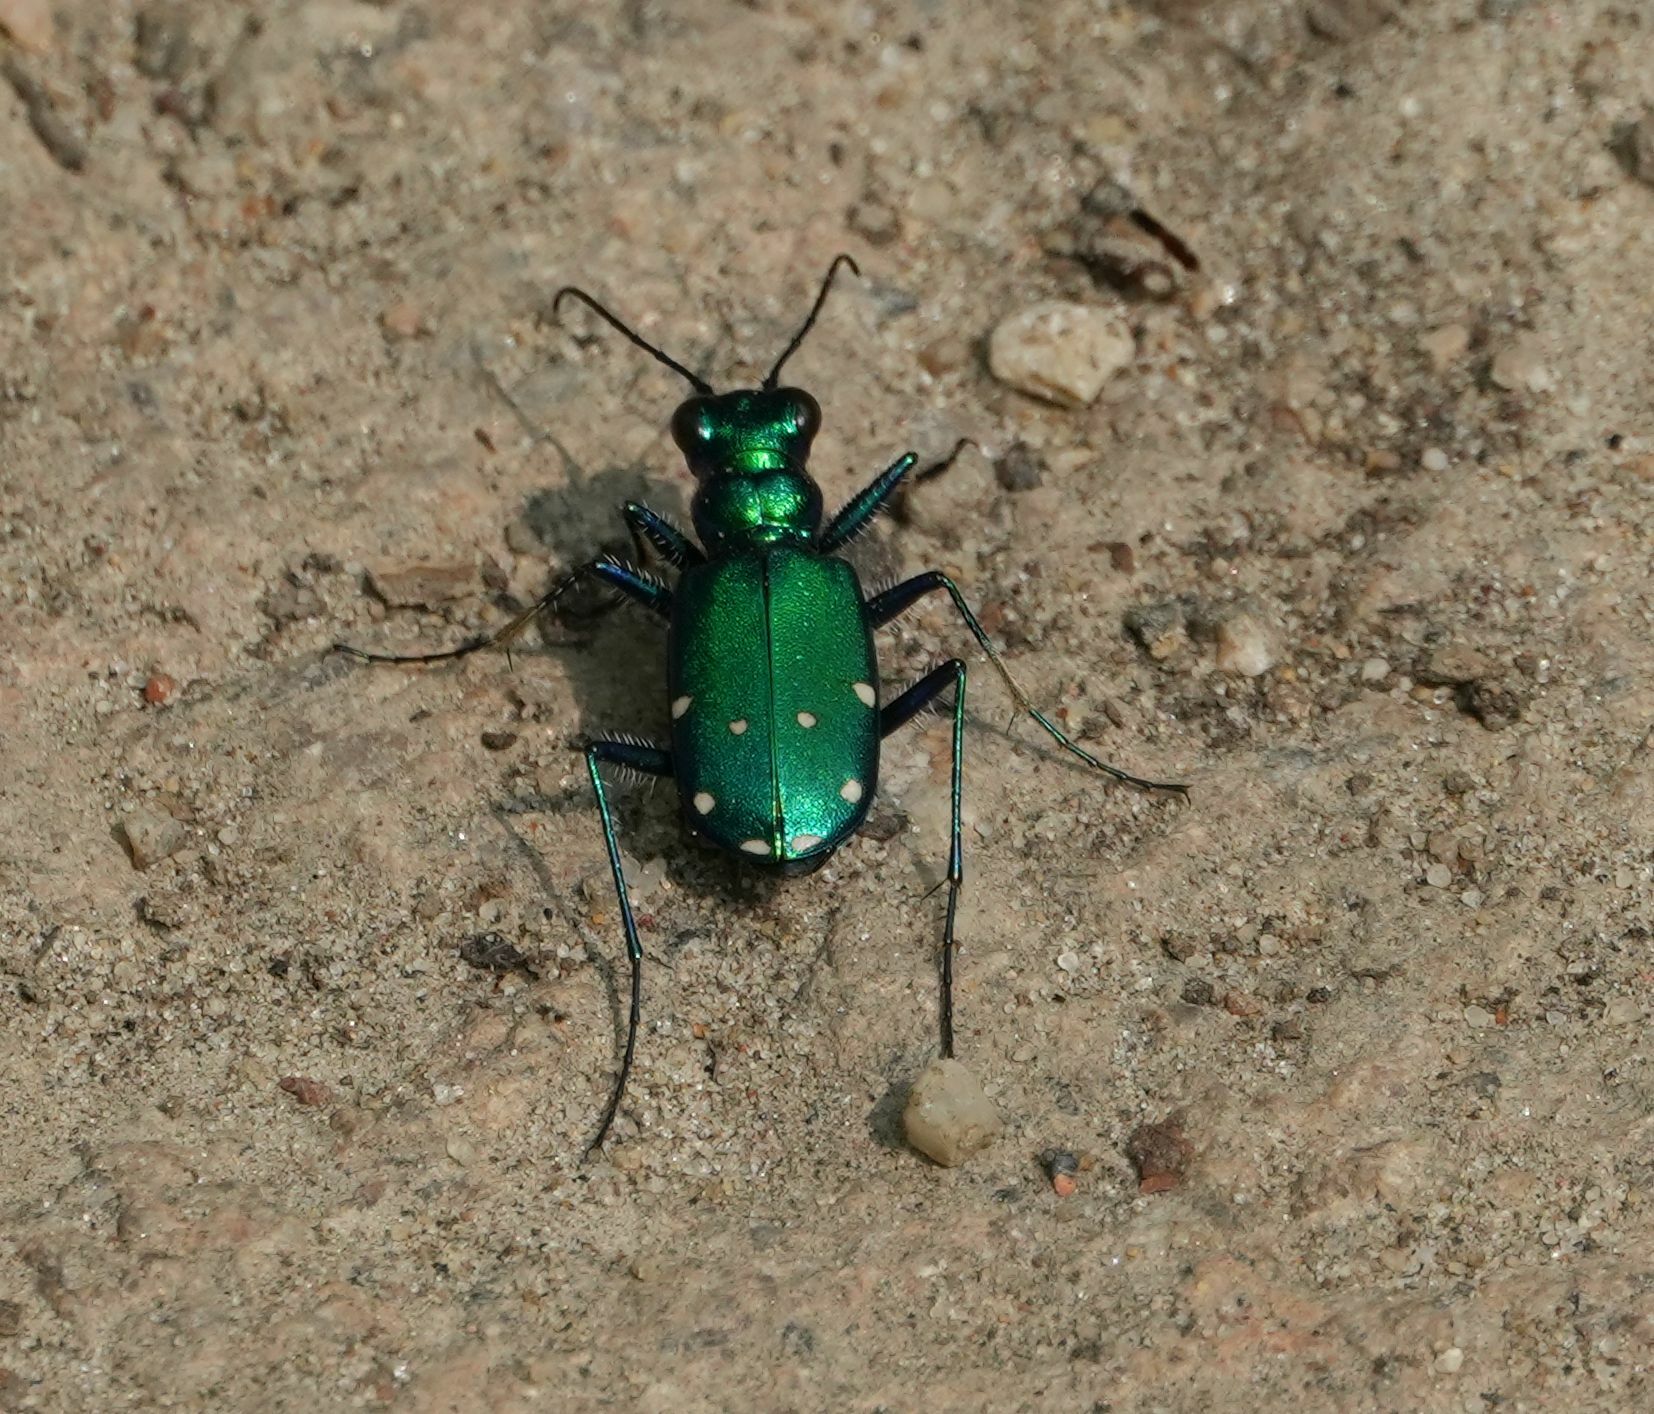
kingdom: Animalia
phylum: Arthropoda
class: Insecta
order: Coleoptera
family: Carabidae
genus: Cicindela
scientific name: Cicindela sexguttata
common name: Six-spotted tiger beetle
